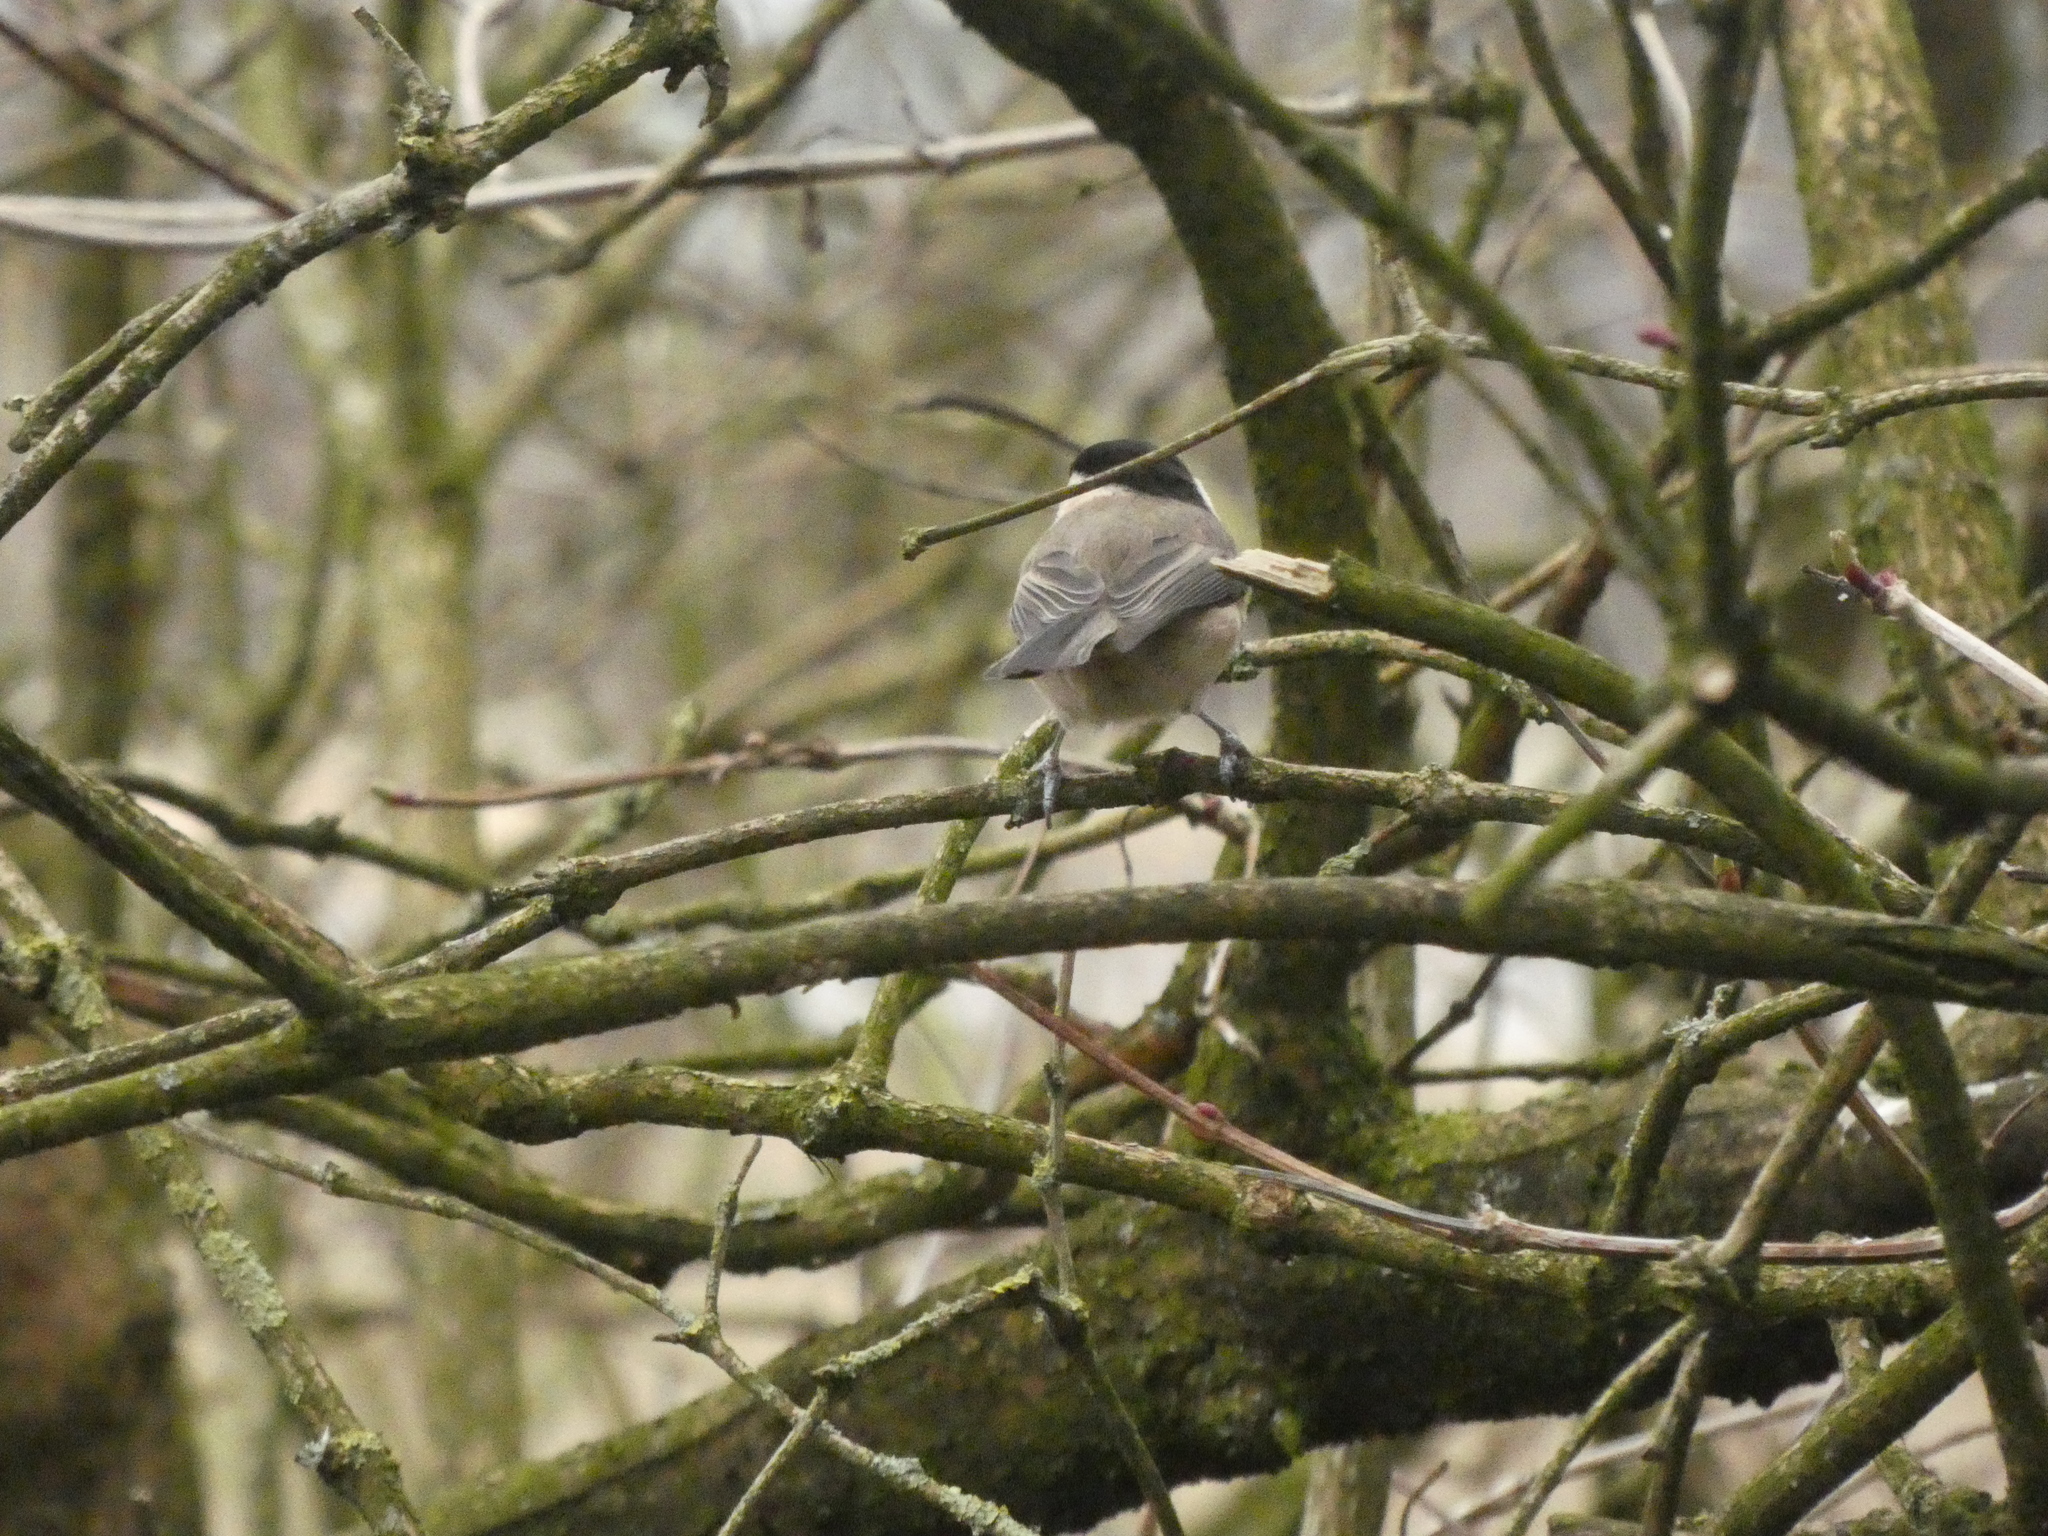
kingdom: Animalia
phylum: Chordata
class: Aves
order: Passeriformes
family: Paridae
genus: Poecile
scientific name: Poecile montanus
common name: Willow tit
